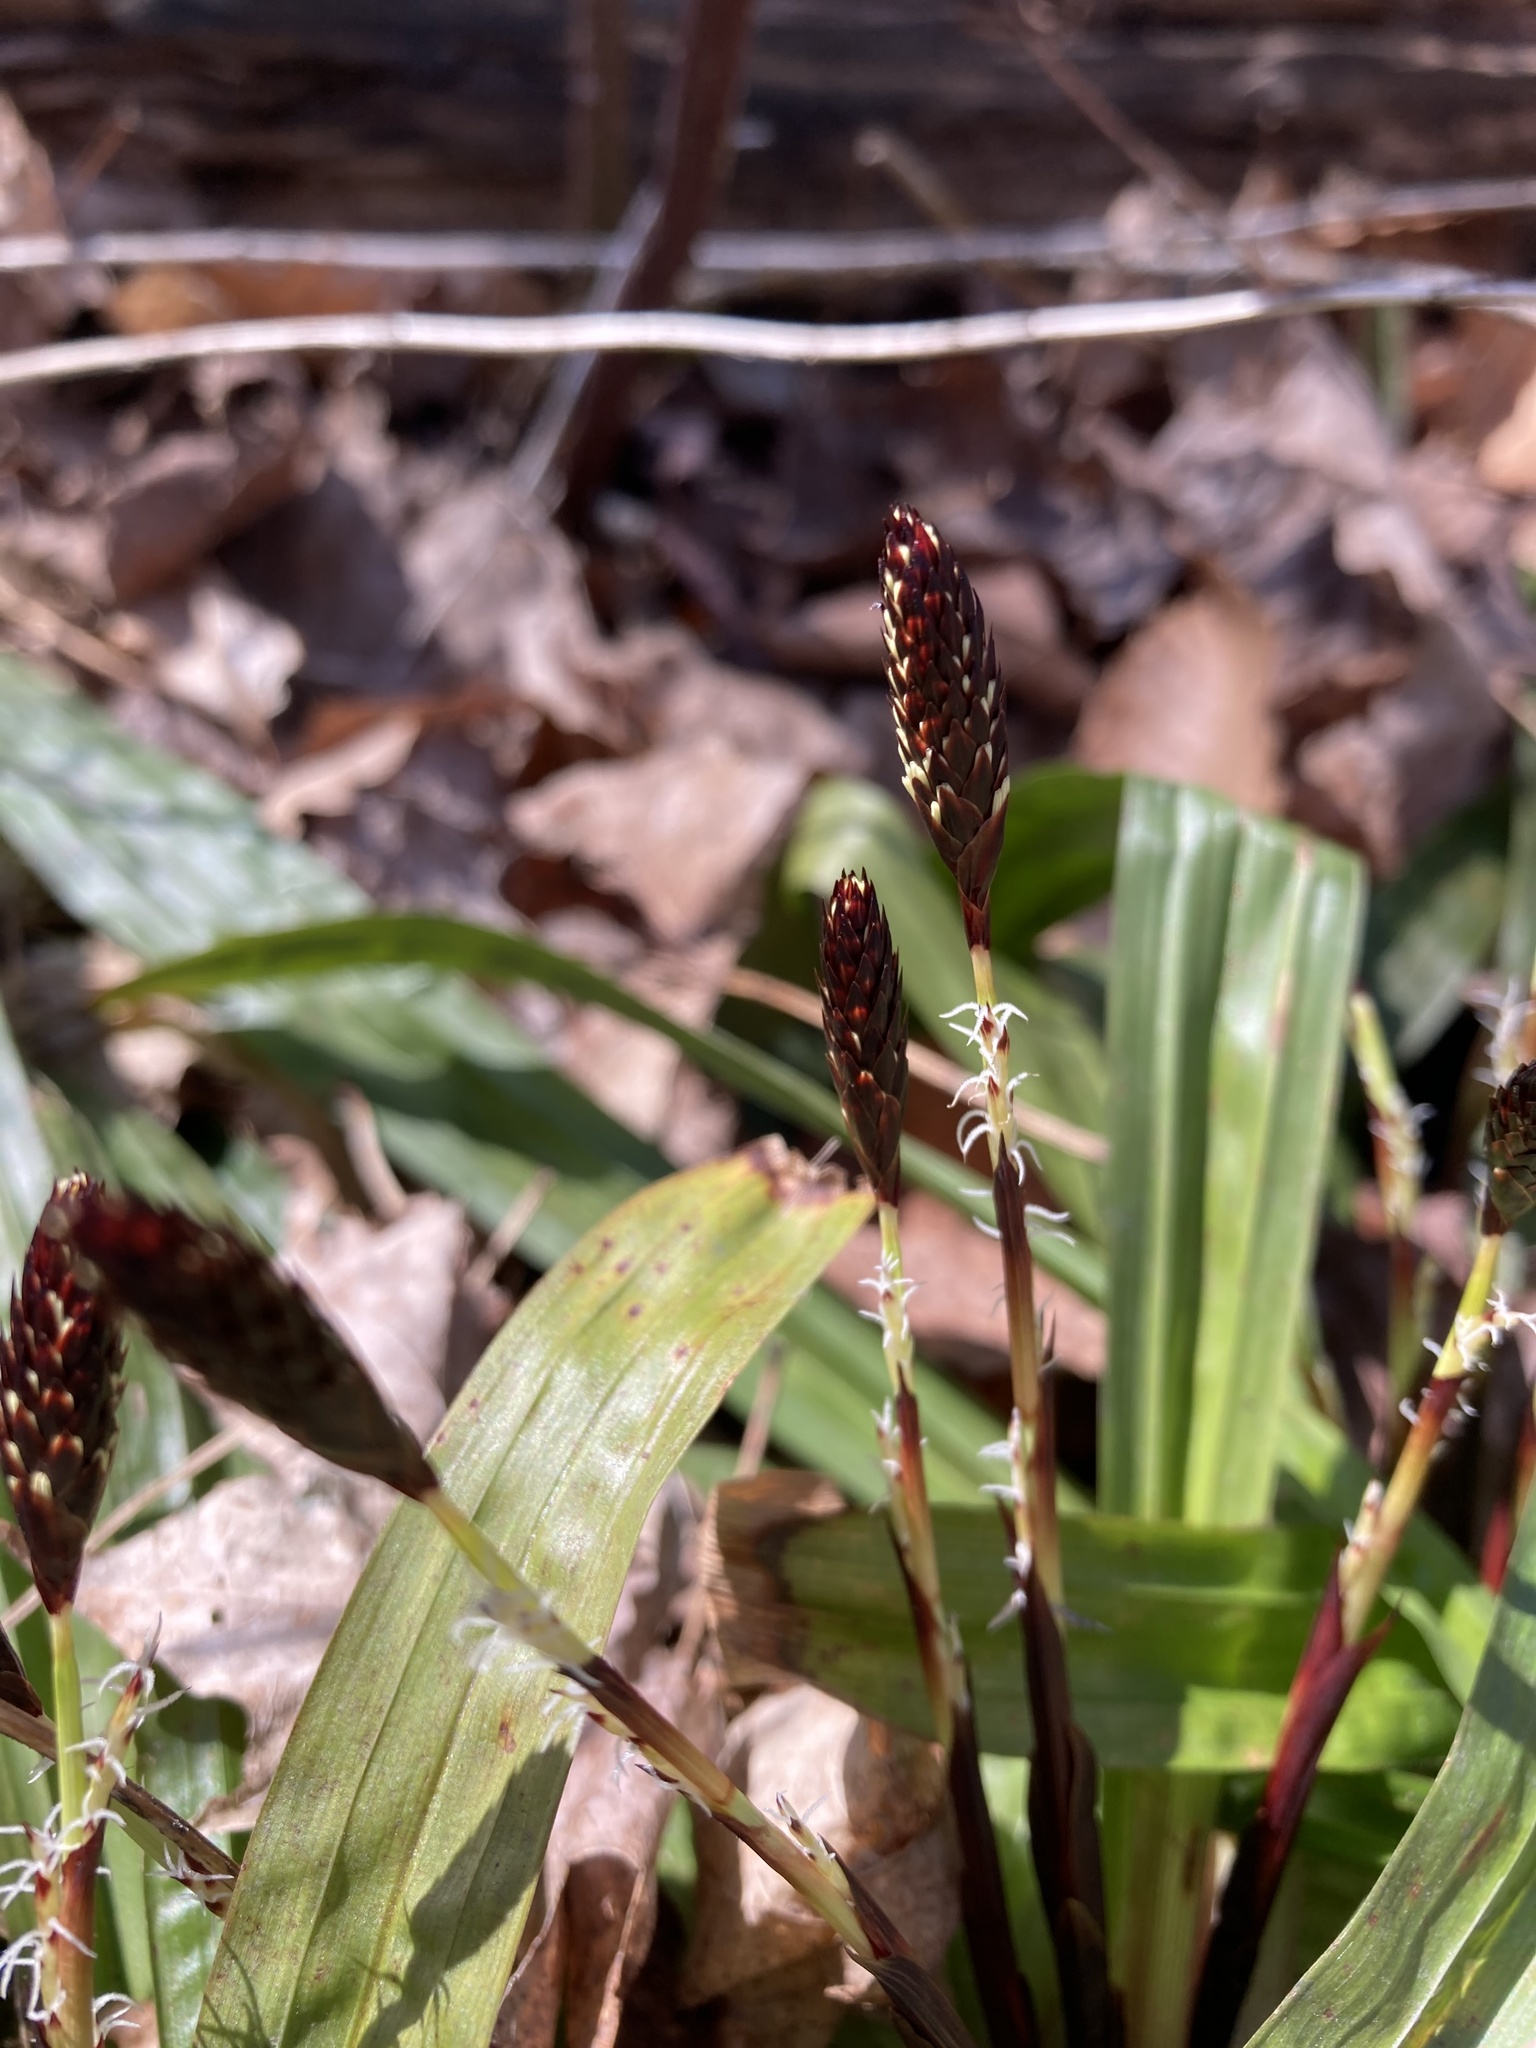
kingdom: Plantae
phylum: Tracheophyta
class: Liliopsida
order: Poales
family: Cyperaceae
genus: Carex
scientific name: Carex plantaginea
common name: Plantain-leaved sedge
